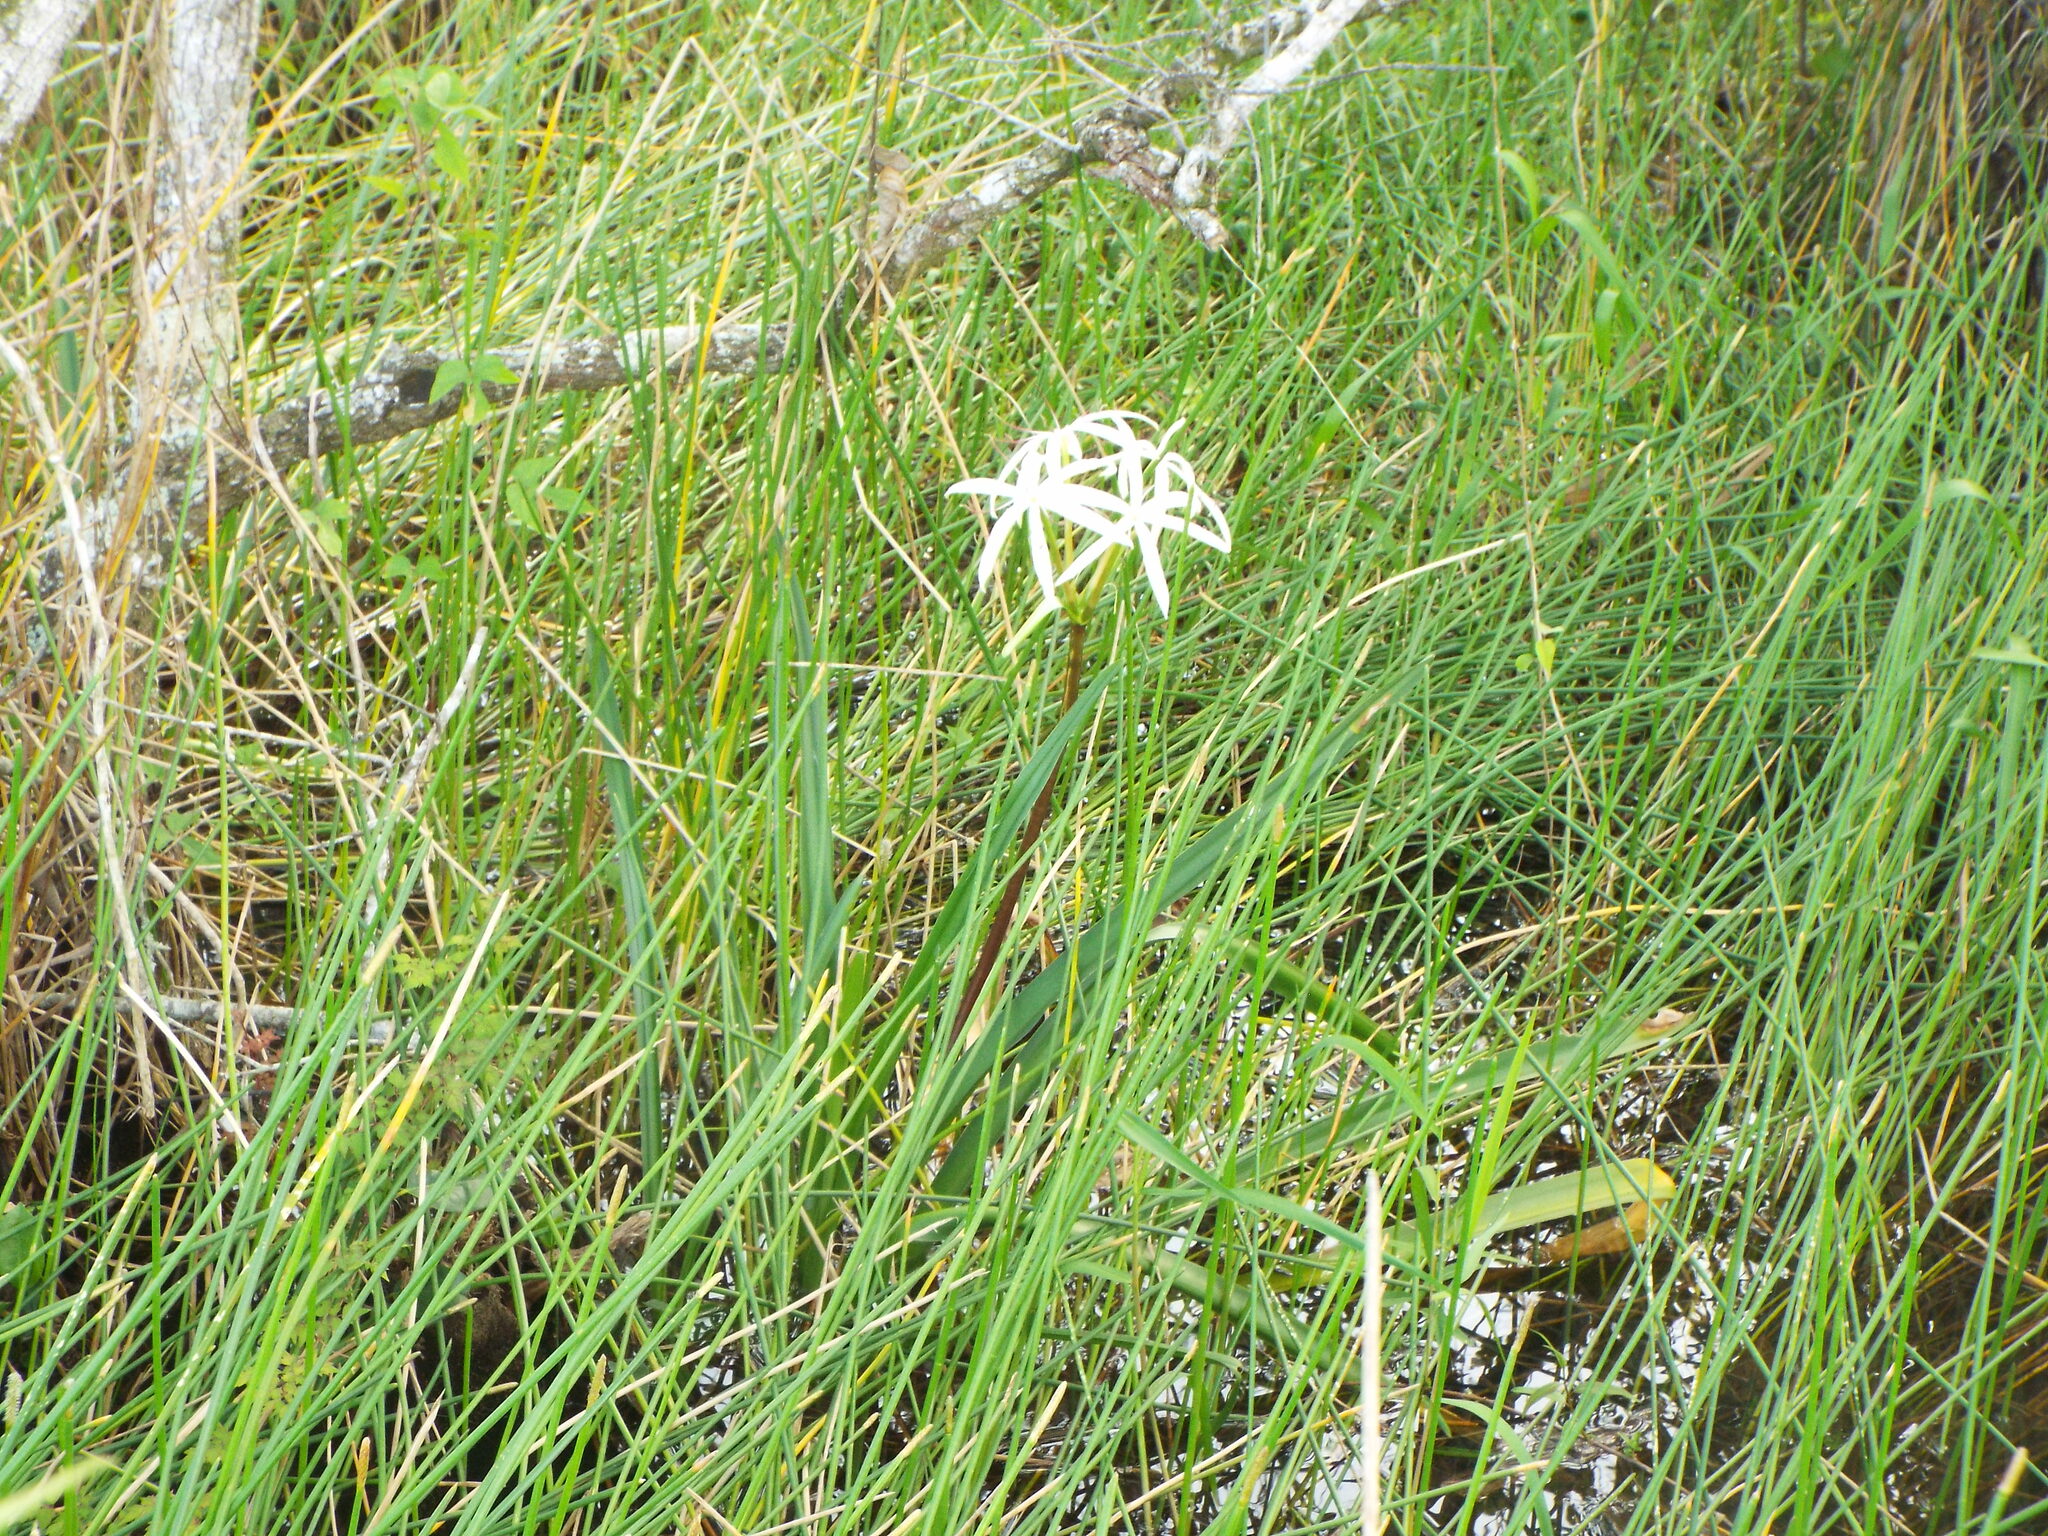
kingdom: Plantae
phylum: Tracheophyta
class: Liliopsida
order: Asparagales
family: Amaryllidaceae
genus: Crinum
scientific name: Crinum americanum
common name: Florida swamp-lily
